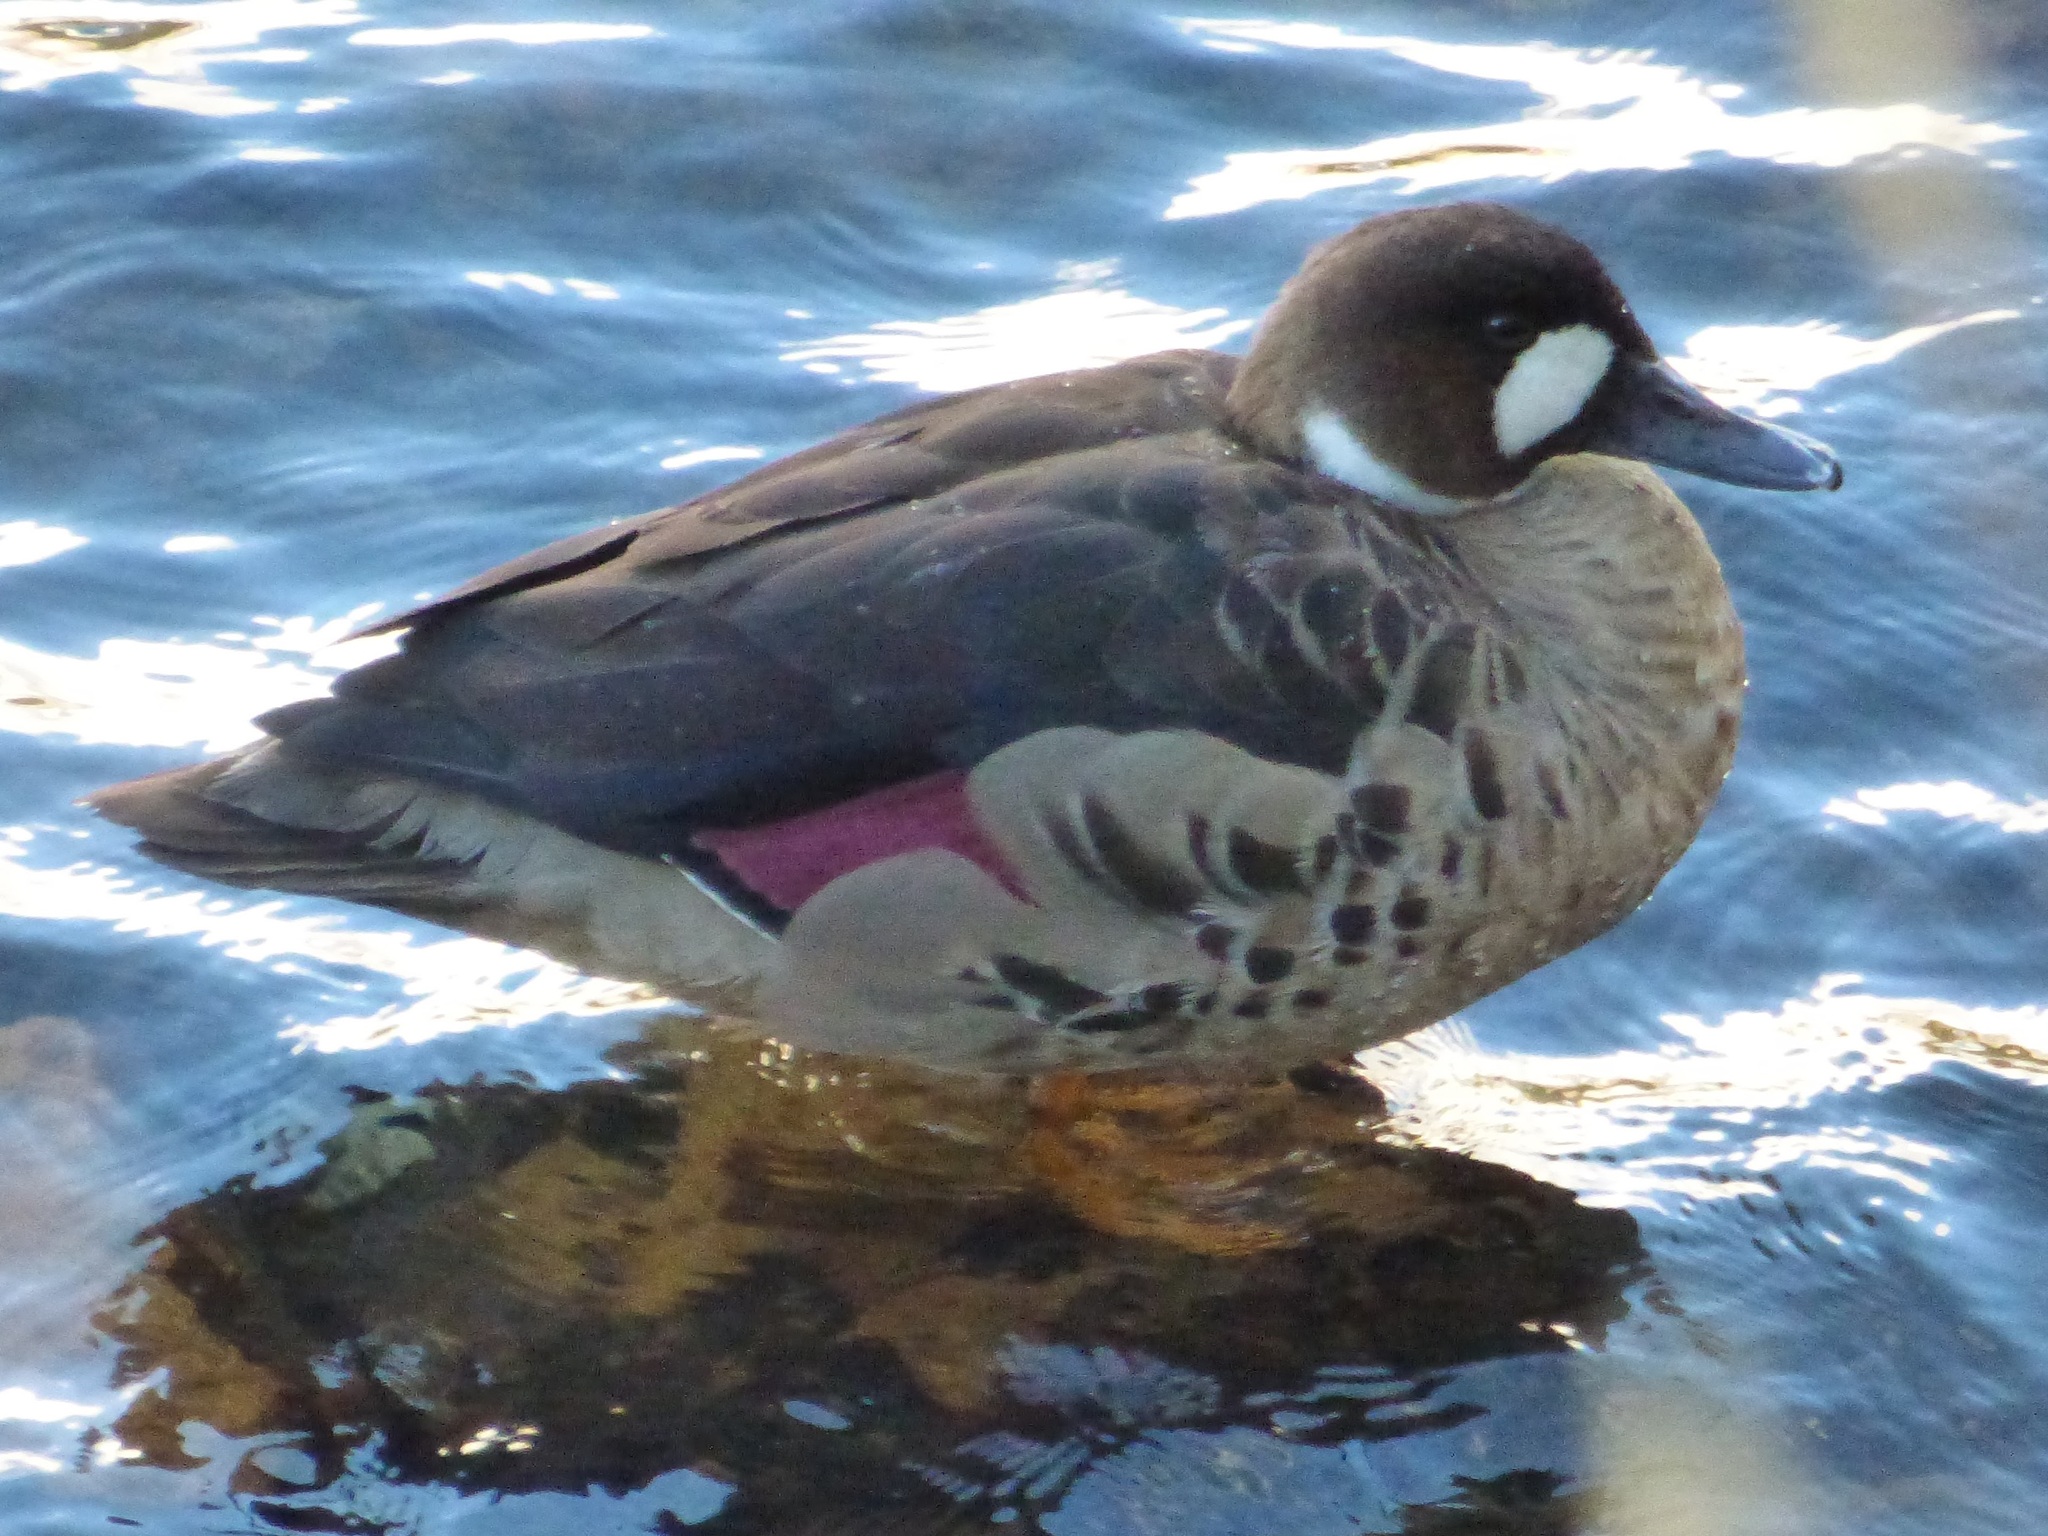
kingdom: Animalia
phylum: Chordata
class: Aves
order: Anseriformes
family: Anatidae
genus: Speculanas
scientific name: Speculanas specularis
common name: Bronze-winged duck
